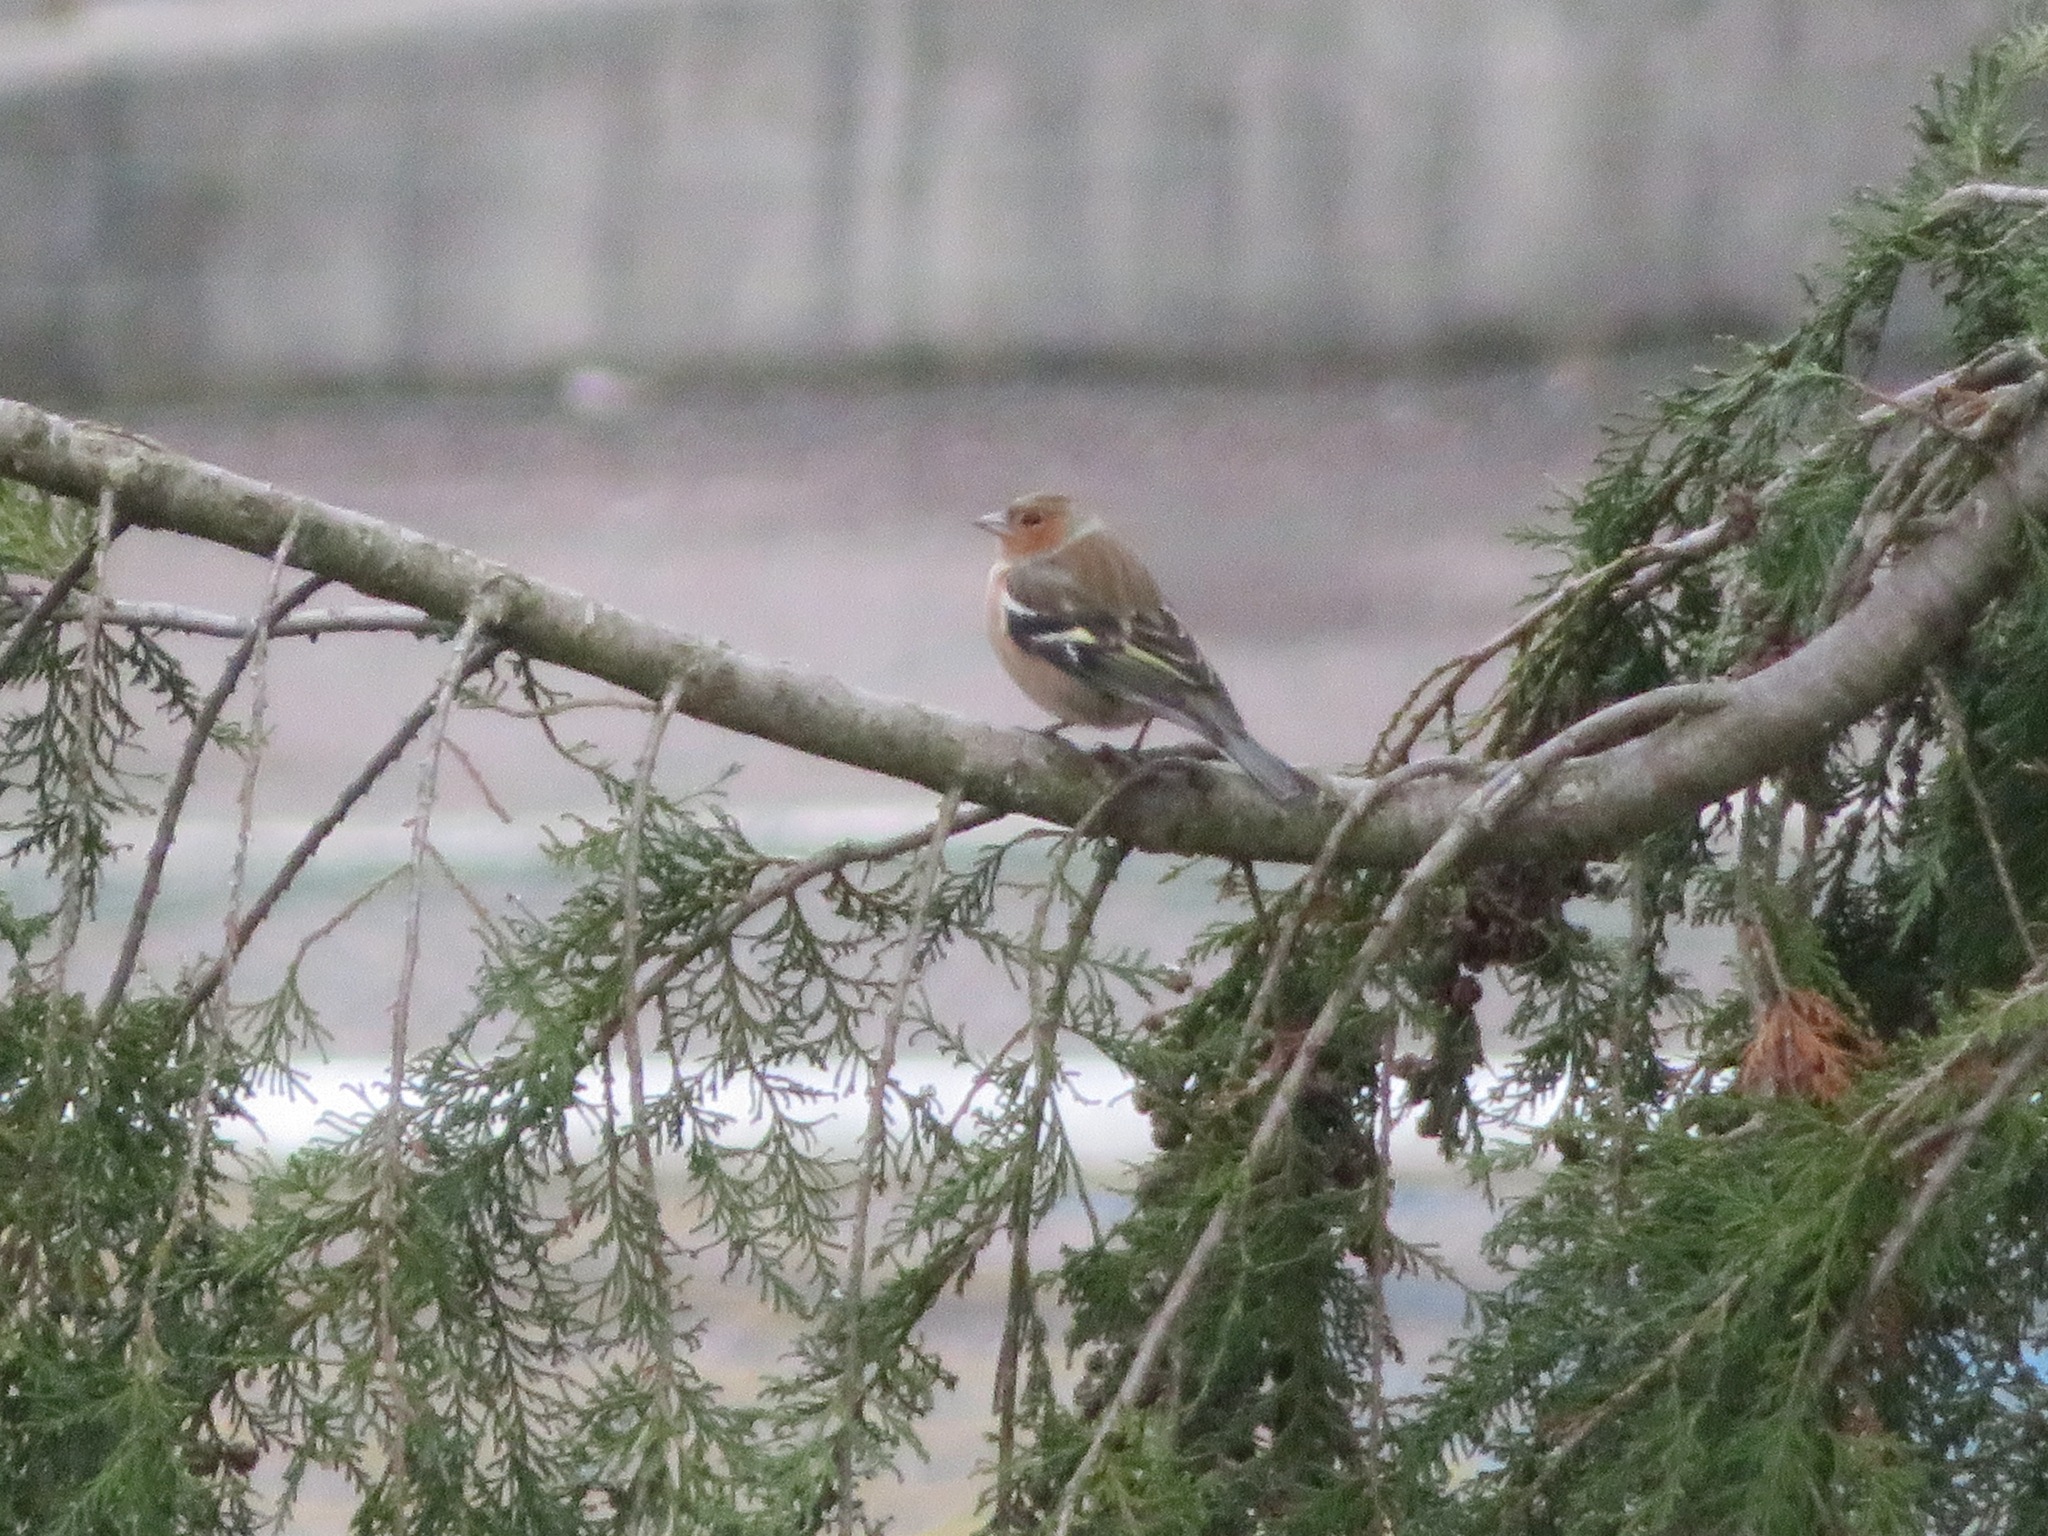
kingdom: Animalia
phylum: Chordata
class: Aves
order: Passeriformes
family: Fringillidae
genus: Fringilla
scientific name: Fringilla coelebs
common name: Common chaffinch
